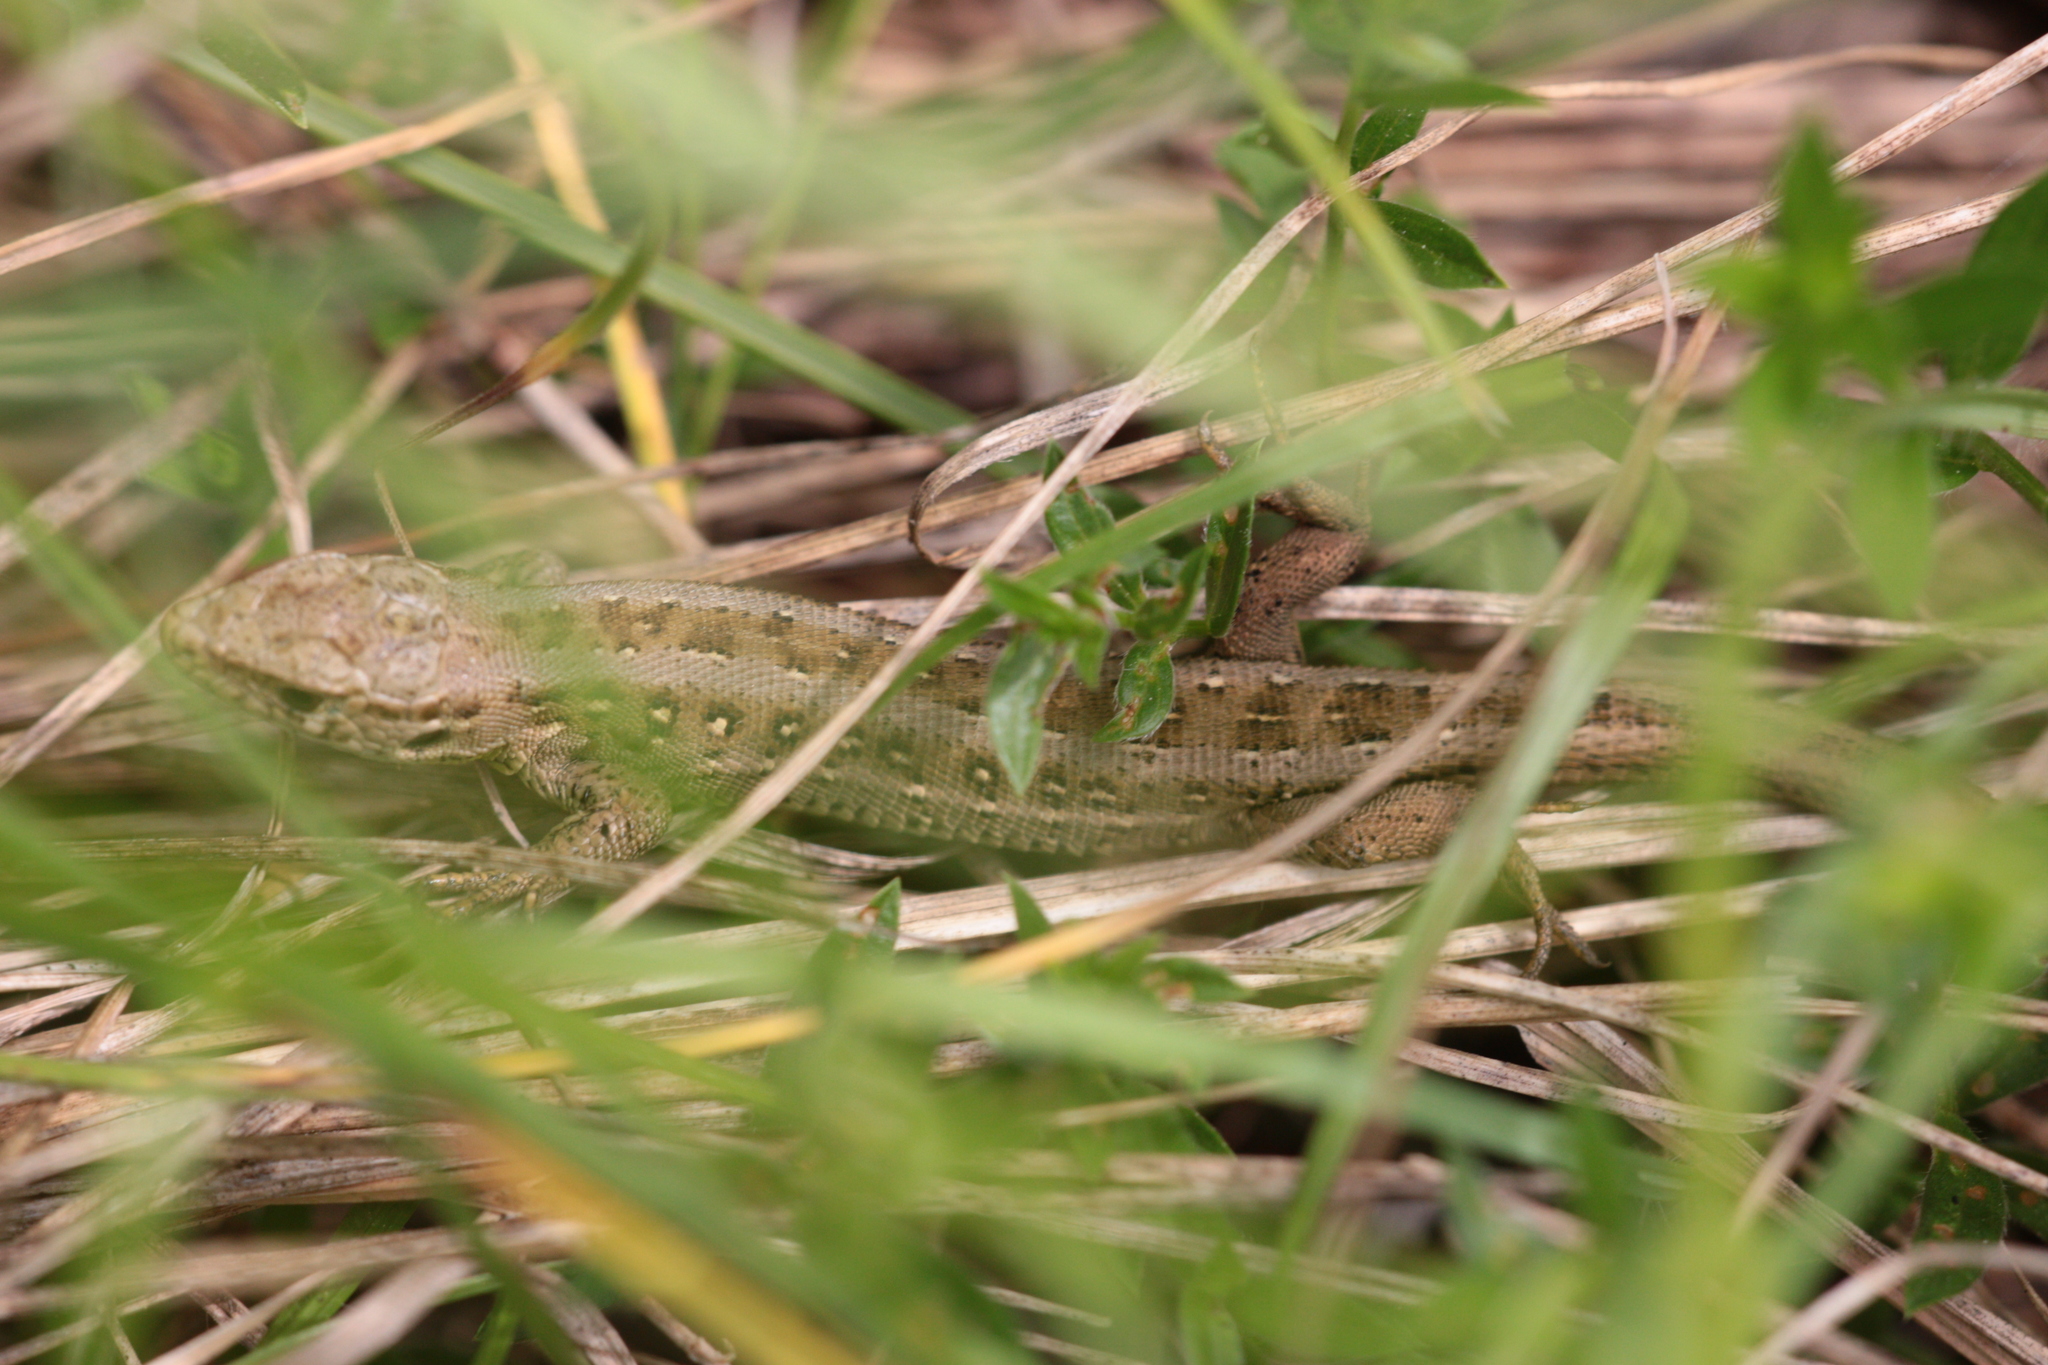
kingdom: Animalia
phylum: Chordata
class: Squamata
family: Lacertidae
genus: Lacerta
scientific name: Lacerta agilis
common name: Sand lizard
